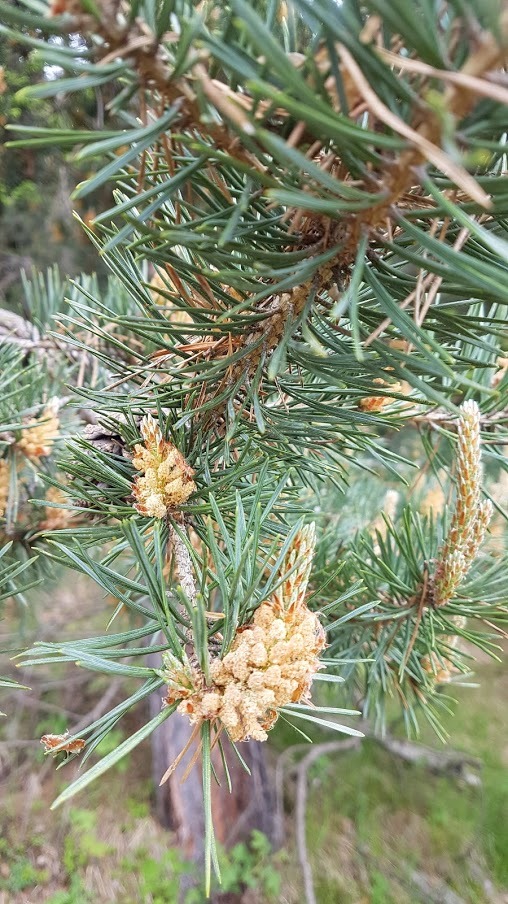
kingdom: Plantae
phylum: Tracheophyta
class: Pinopsida
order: Pinales
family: Pinaceae
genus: Pinus
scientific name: Pinus sylvestris
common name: Scots pine
